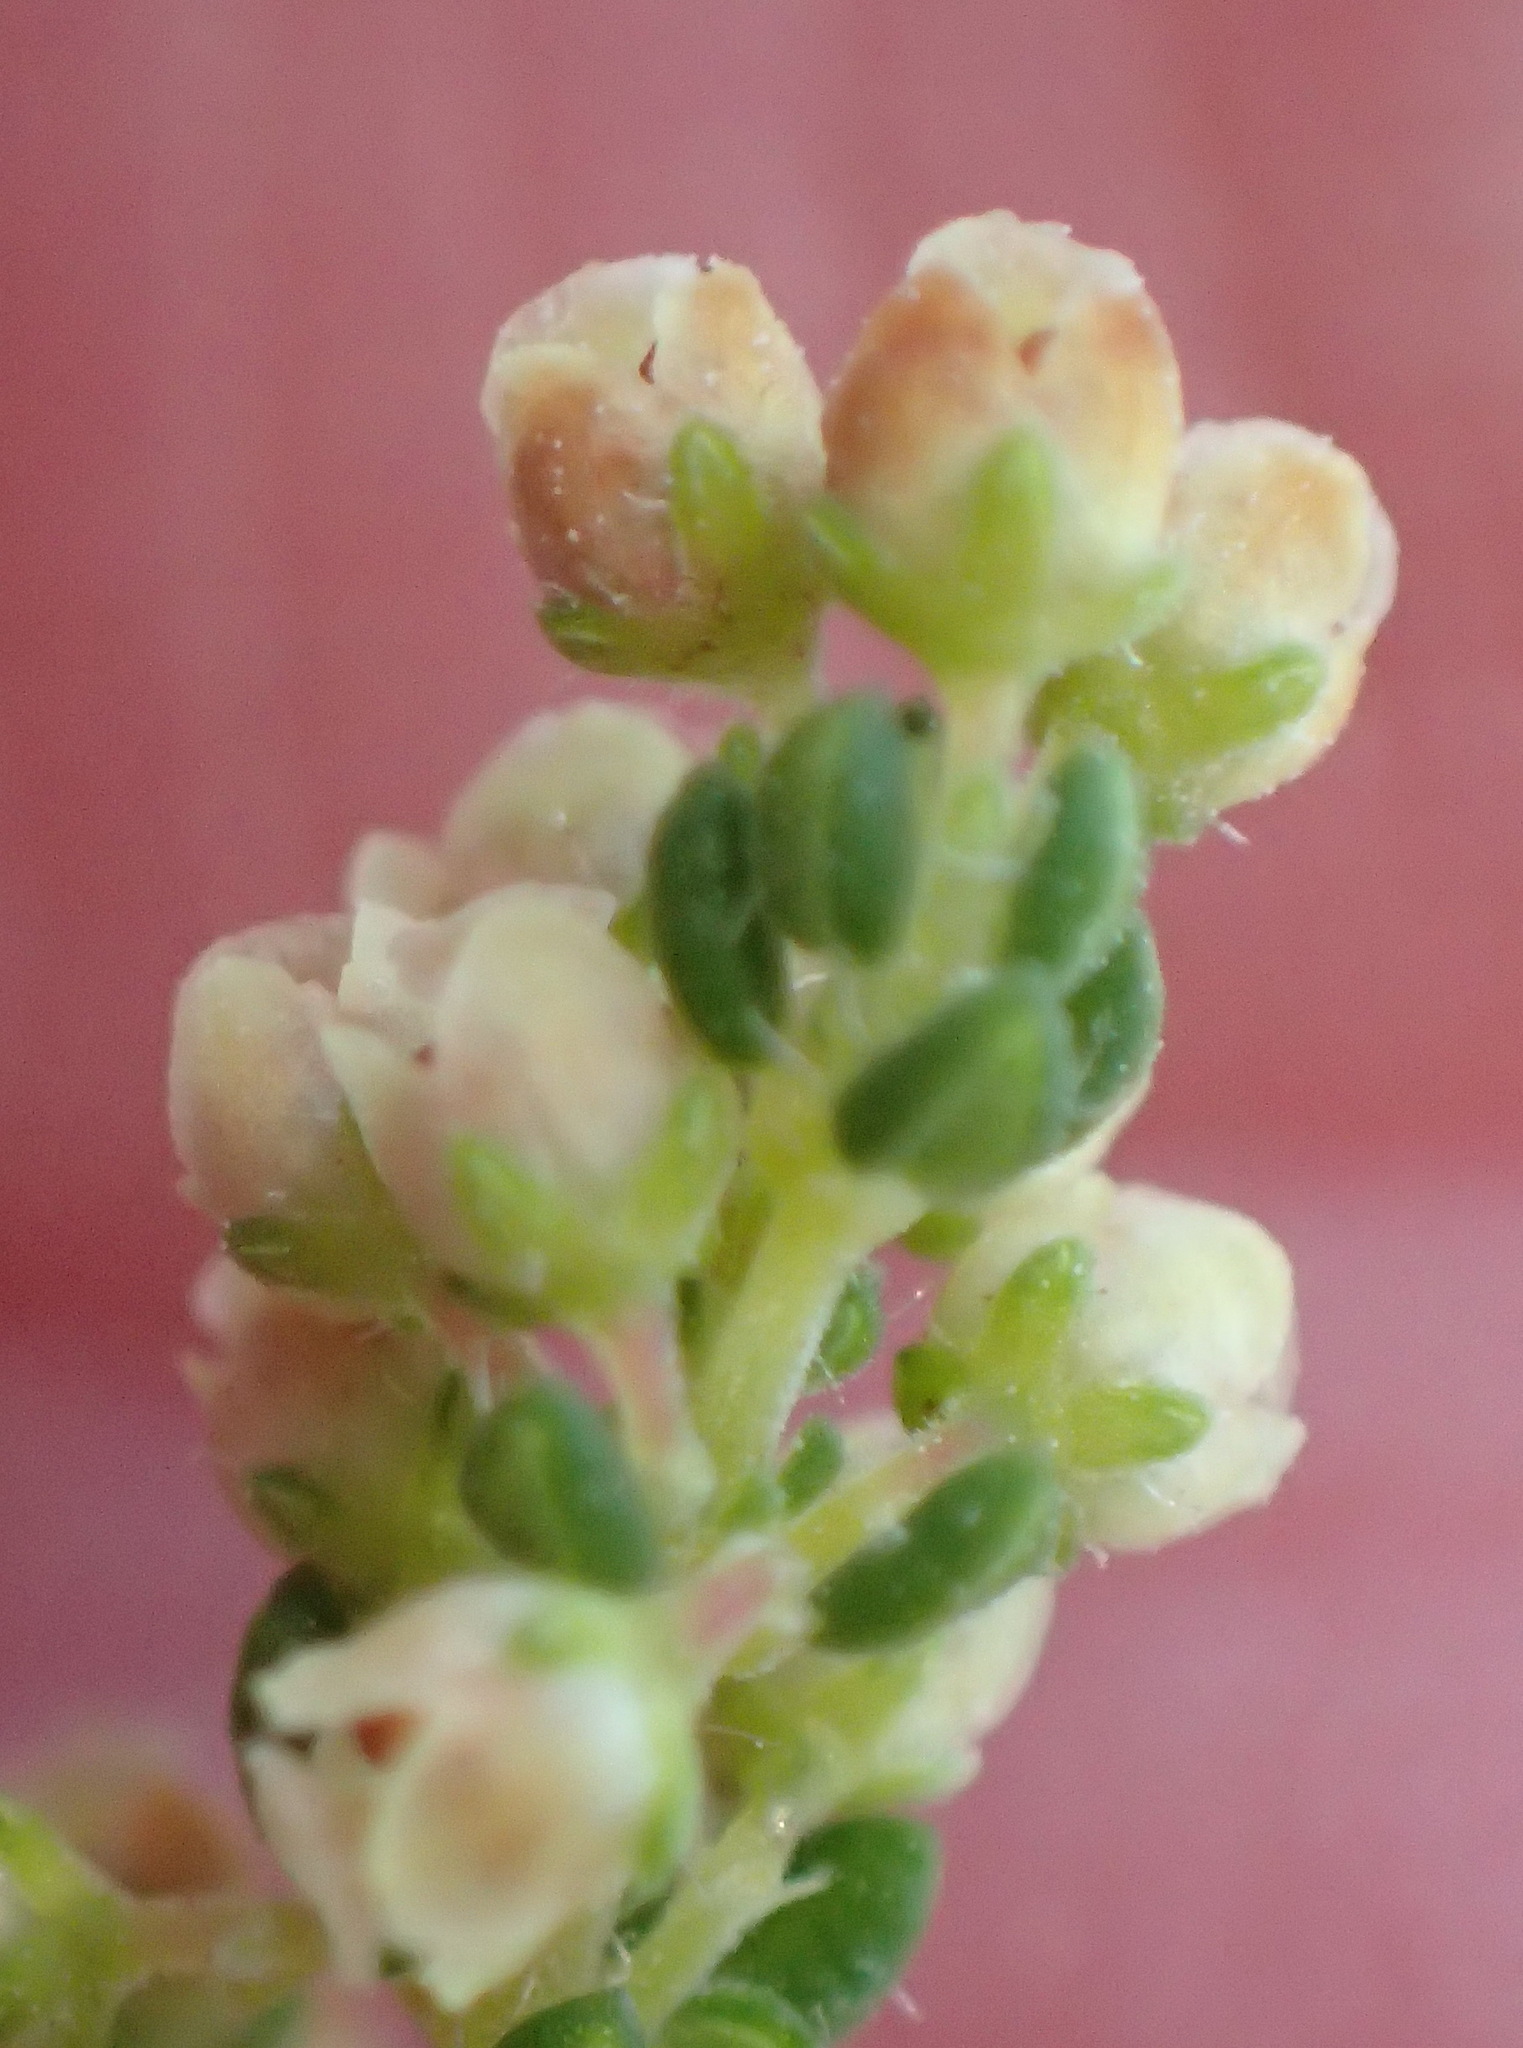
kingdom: Plantae
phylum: Tracheophyta
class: Magnoliopsida
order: Ericales
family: Ericaceae
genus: Erica
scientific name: Erica leucopelta
